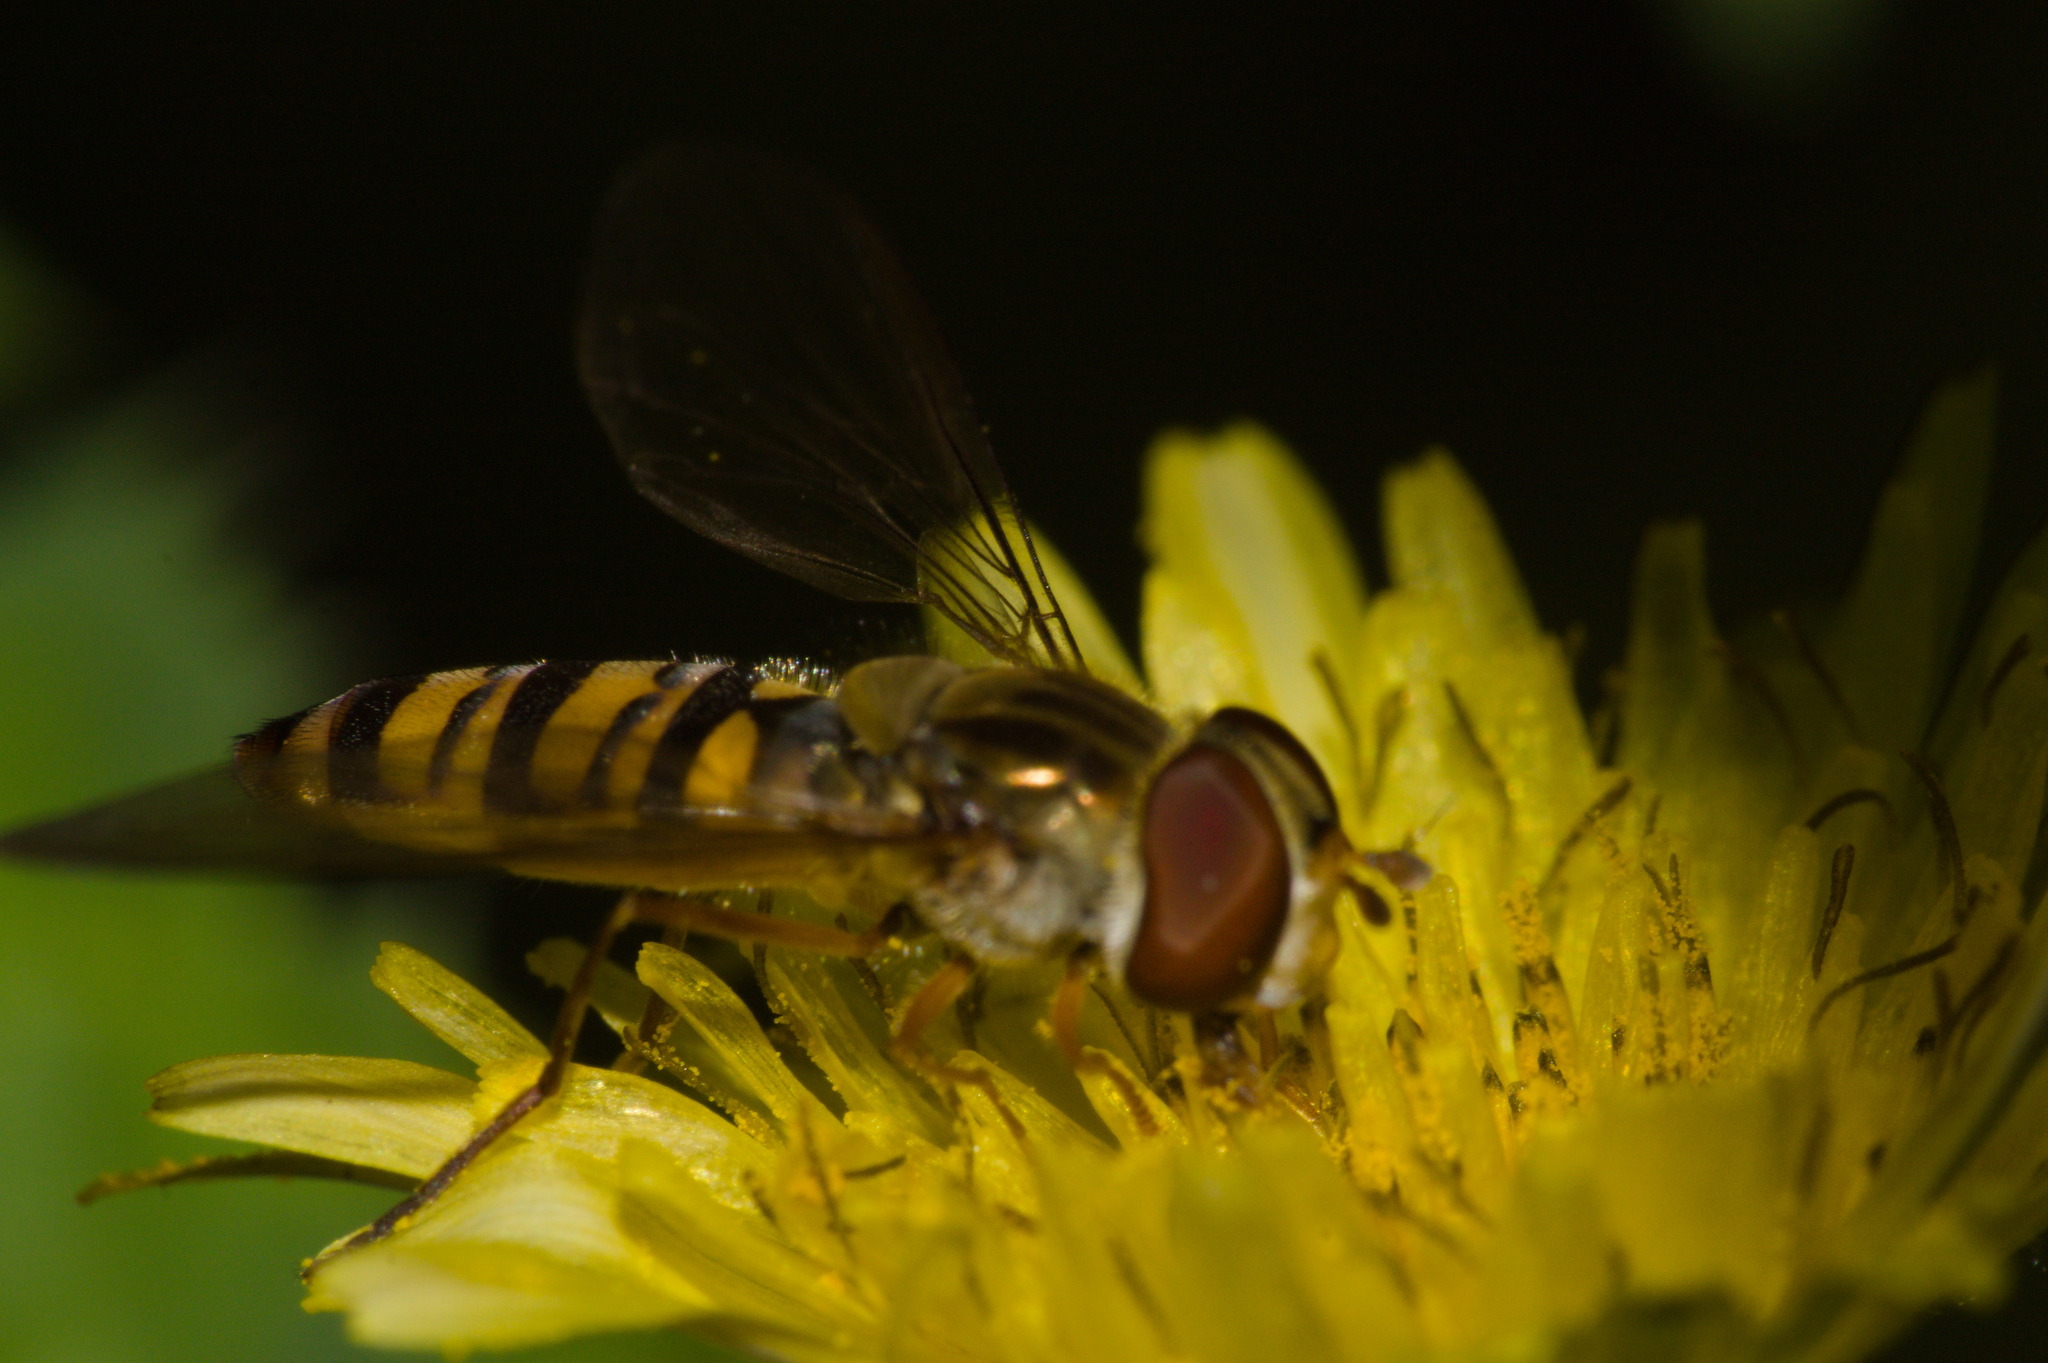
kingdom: Animalia
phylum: Arthropoda
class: Insecta
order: Diptera
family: Syrphidae
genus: Episyrphus
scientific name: Episyrphus balteatus
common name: Marmalade hoverfly
